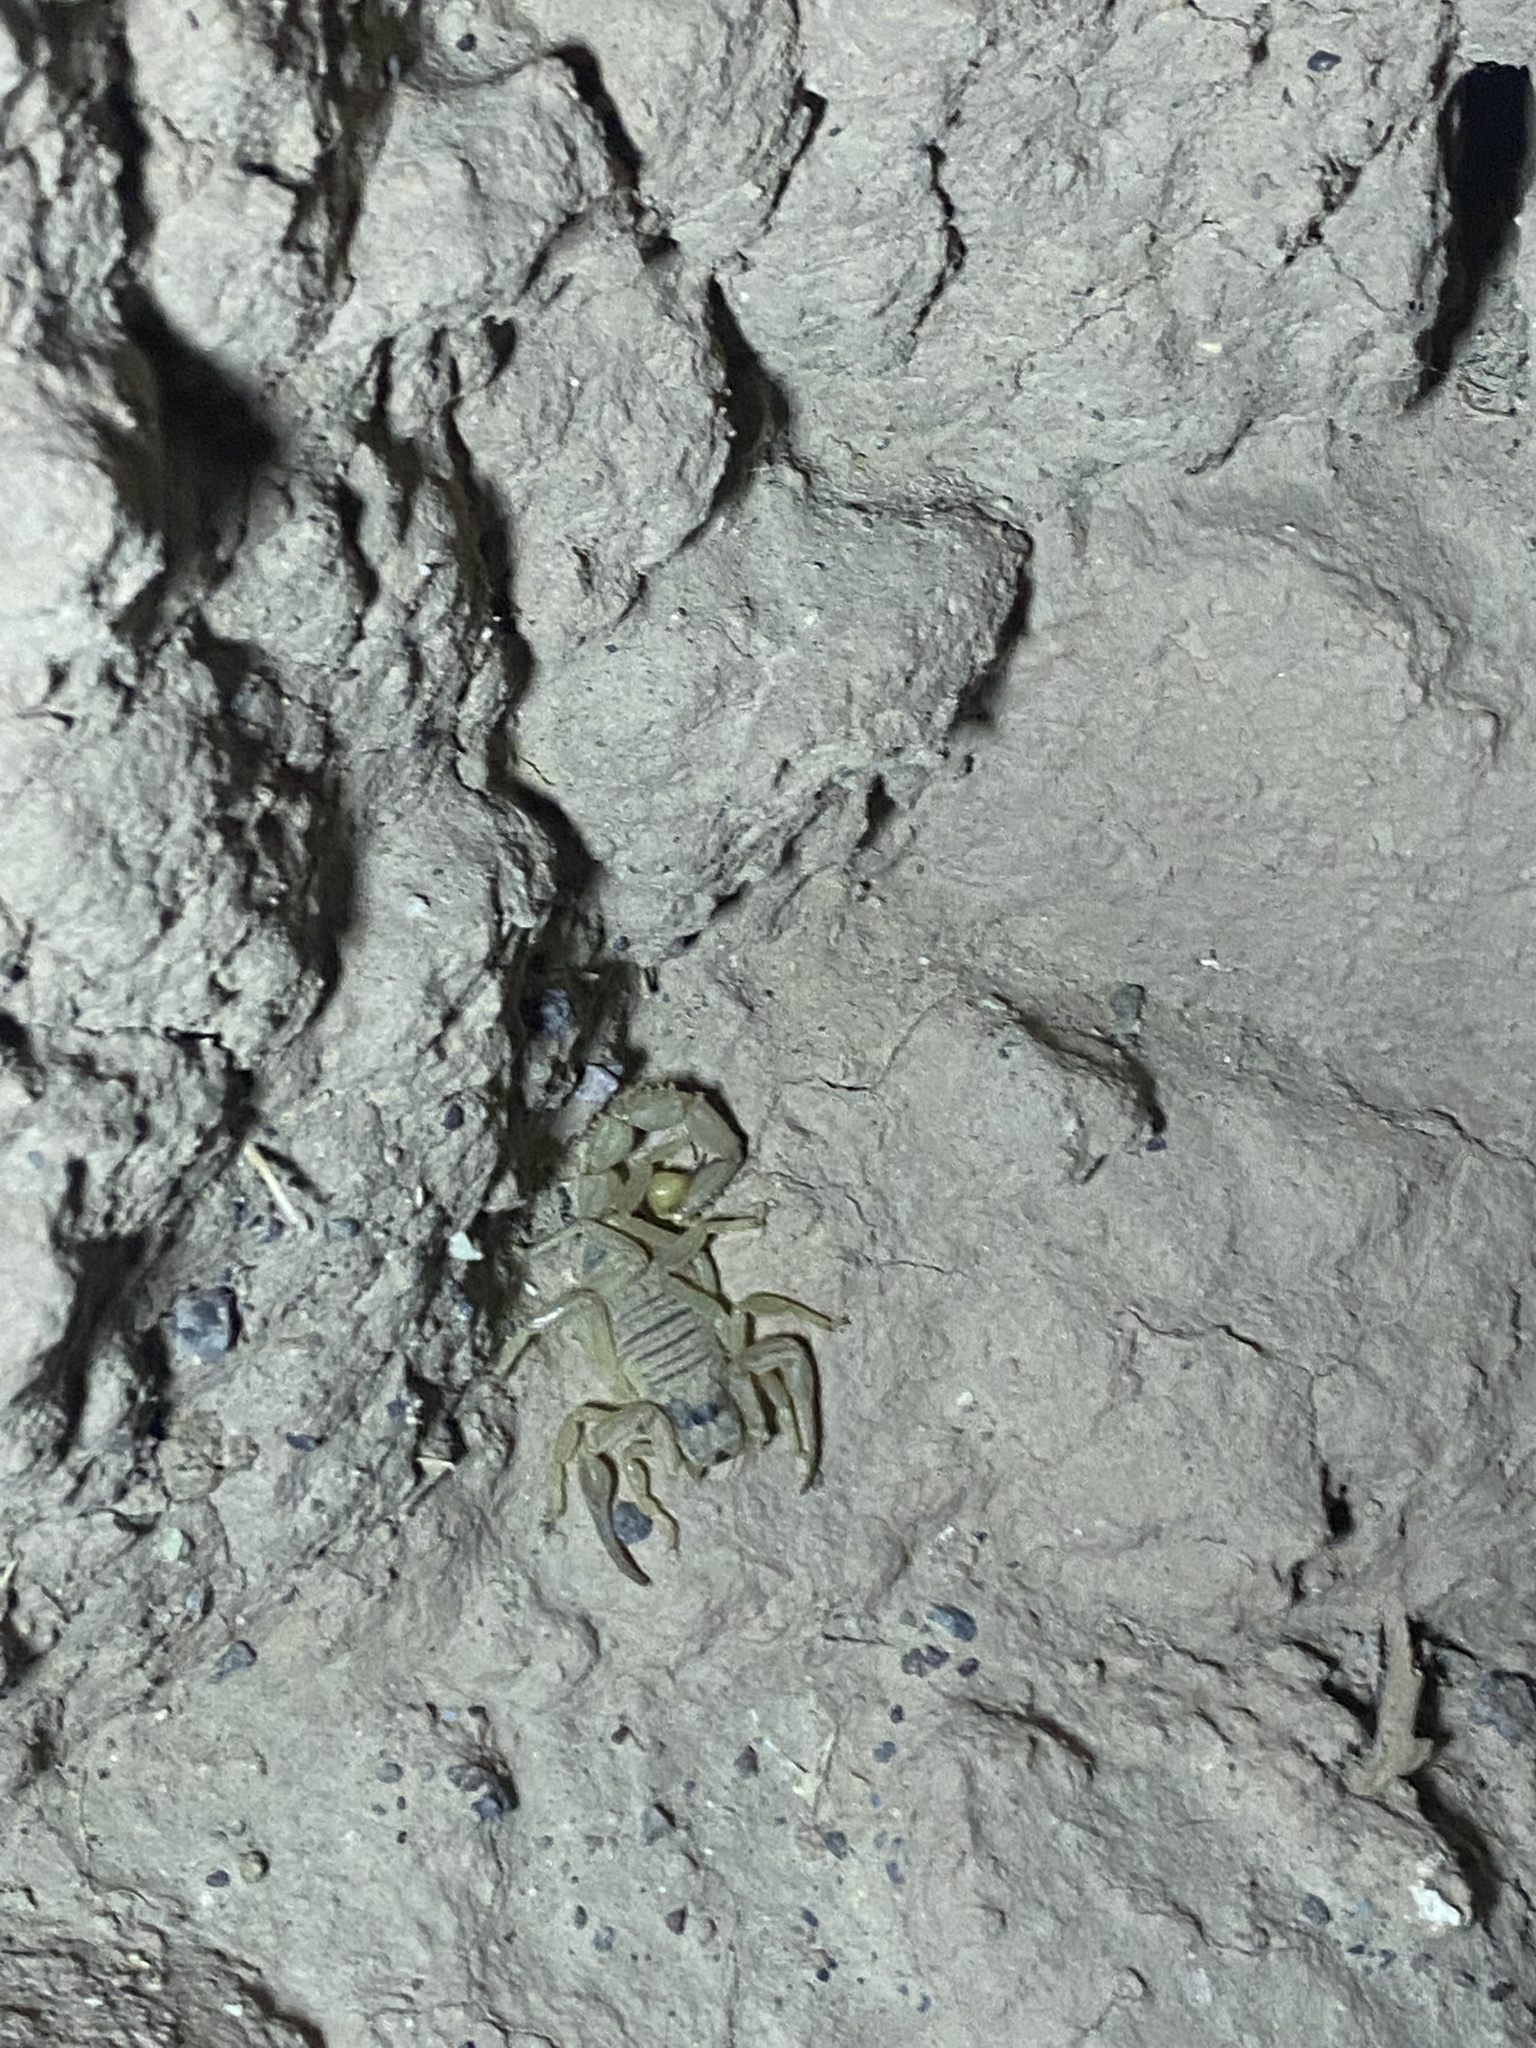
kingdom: Animalia
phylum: Arthropoda
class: Arachnida
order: Scorpiones
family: Buthidae
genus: Odontobuthus
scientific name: Odontobuthus doriae
